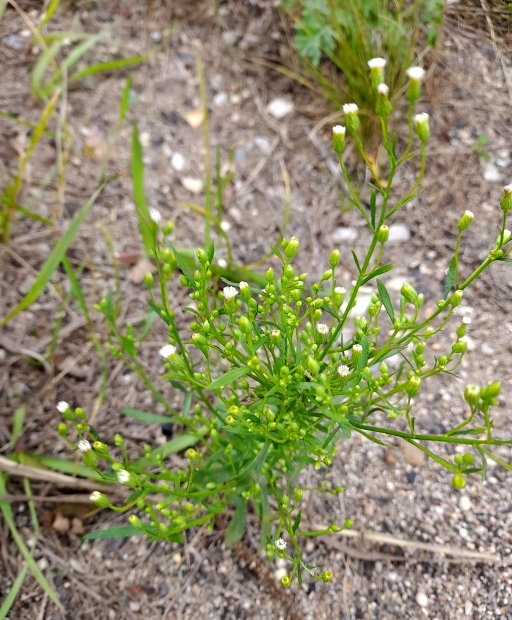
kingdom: Plantae
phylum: Tracheophyta
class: Magnoliopsida
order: Asterales
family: Asteraceae
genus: Erigeron
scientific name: Erigeron canadensis
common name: Canadian fleabane
